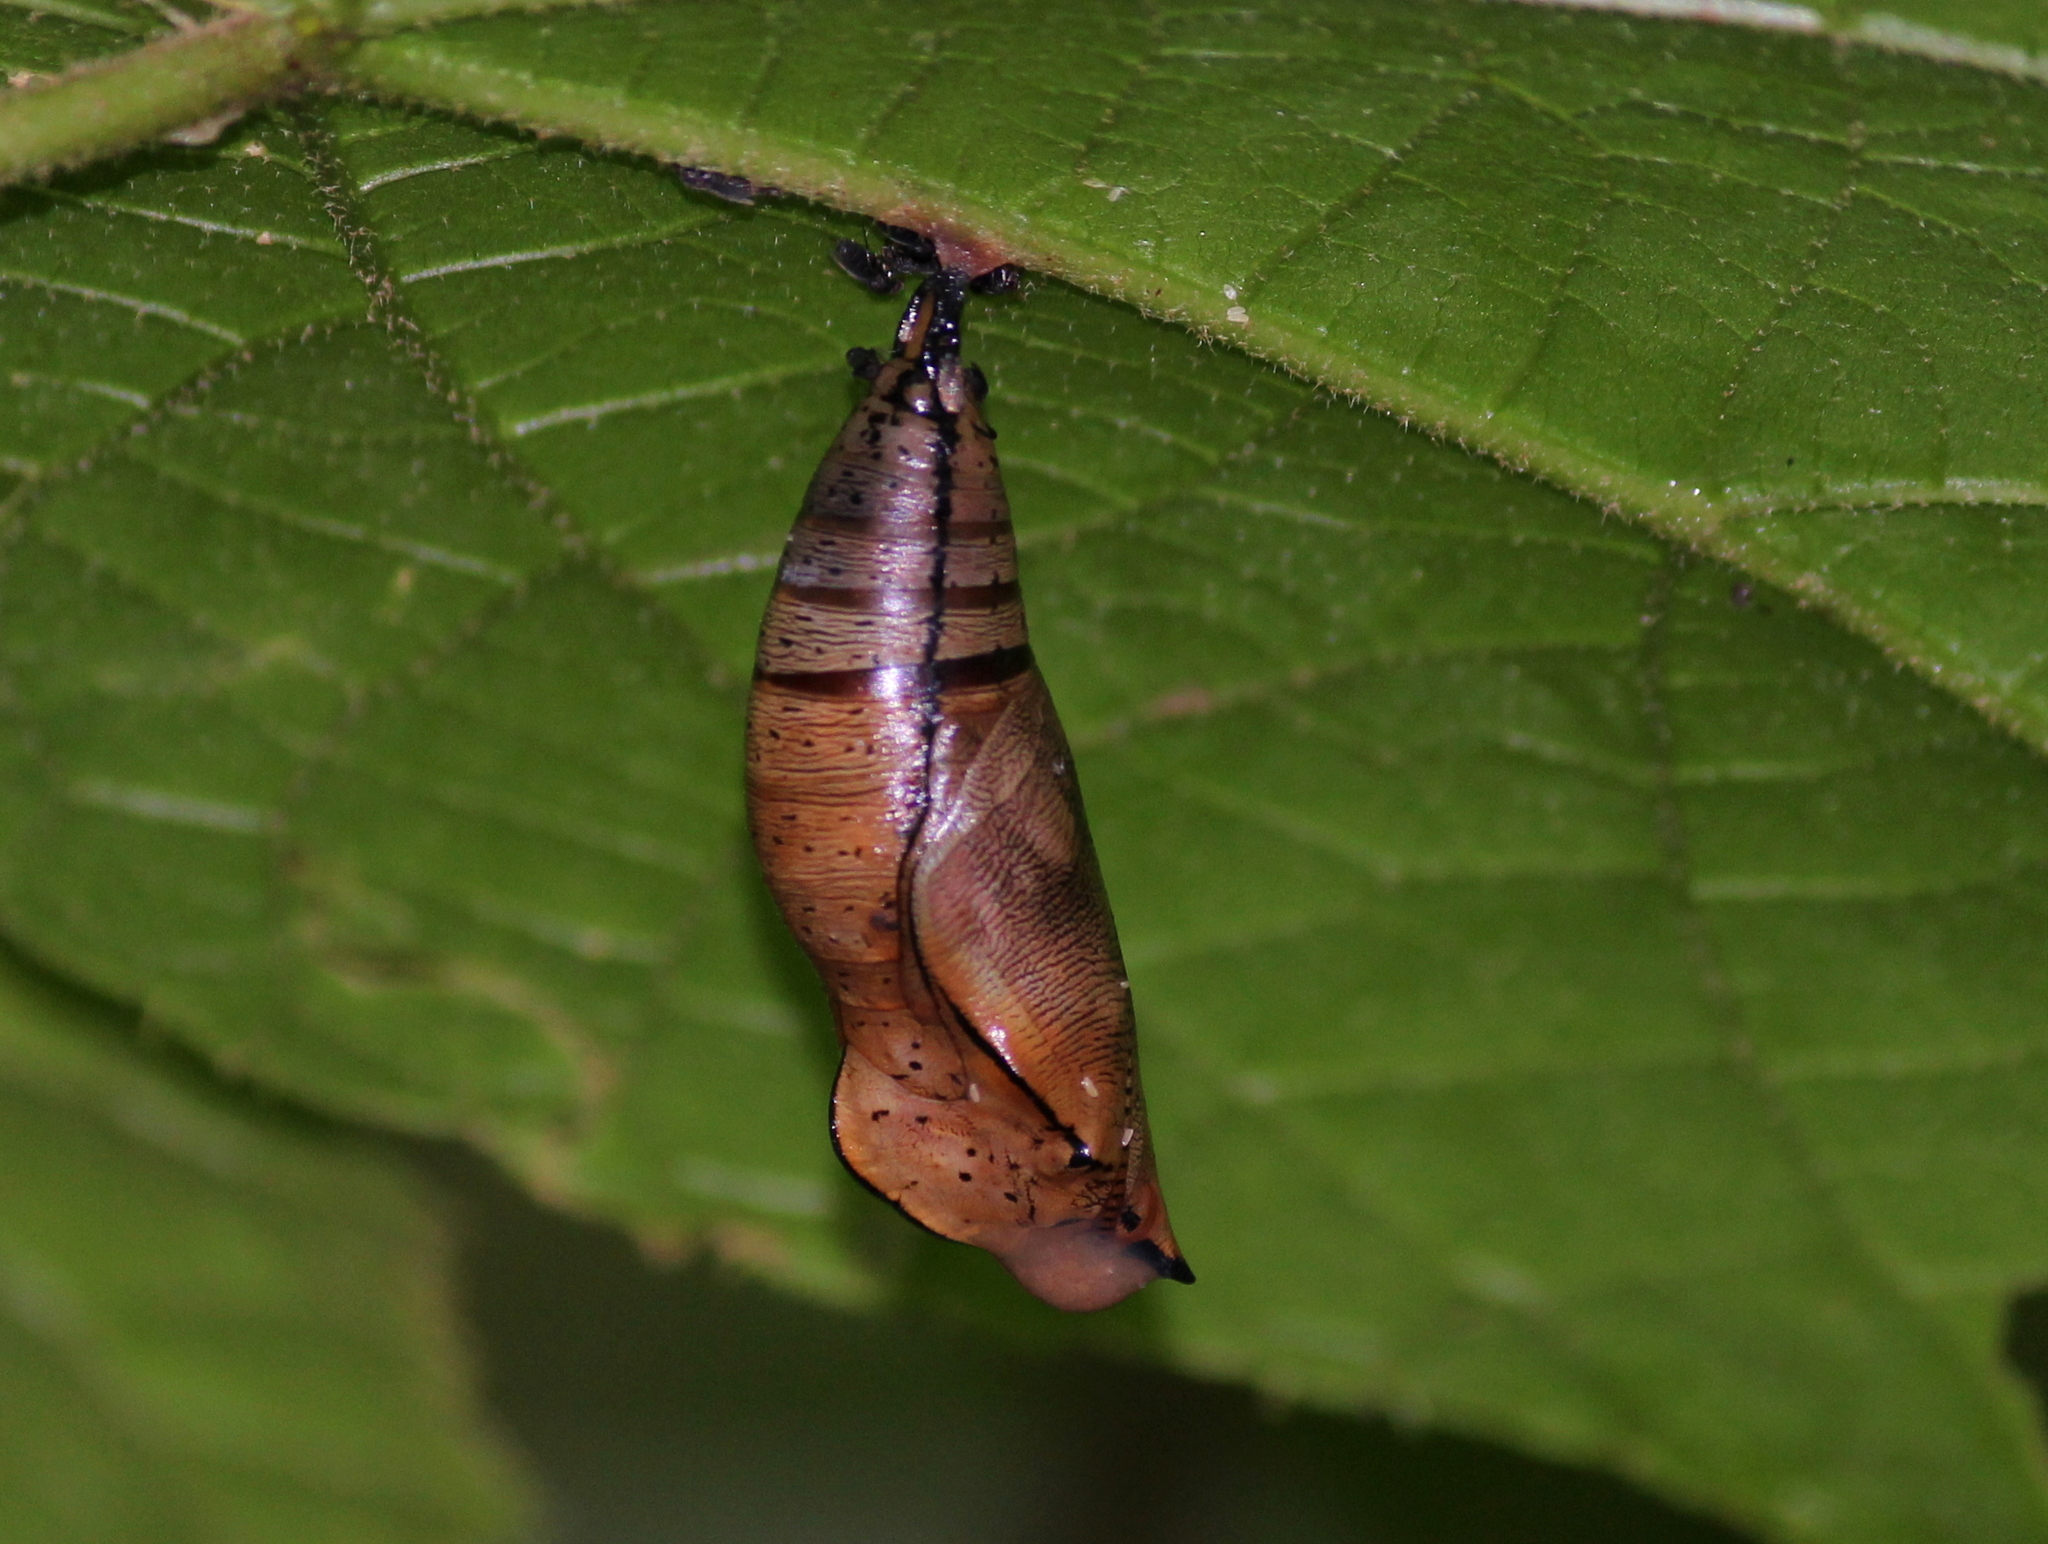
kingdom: Animalia
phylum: Arthropoda
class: Insecta
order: Lepidoptera
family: Nymphalidae
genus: Doleschallia
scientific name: Doleschallia bisaltide
